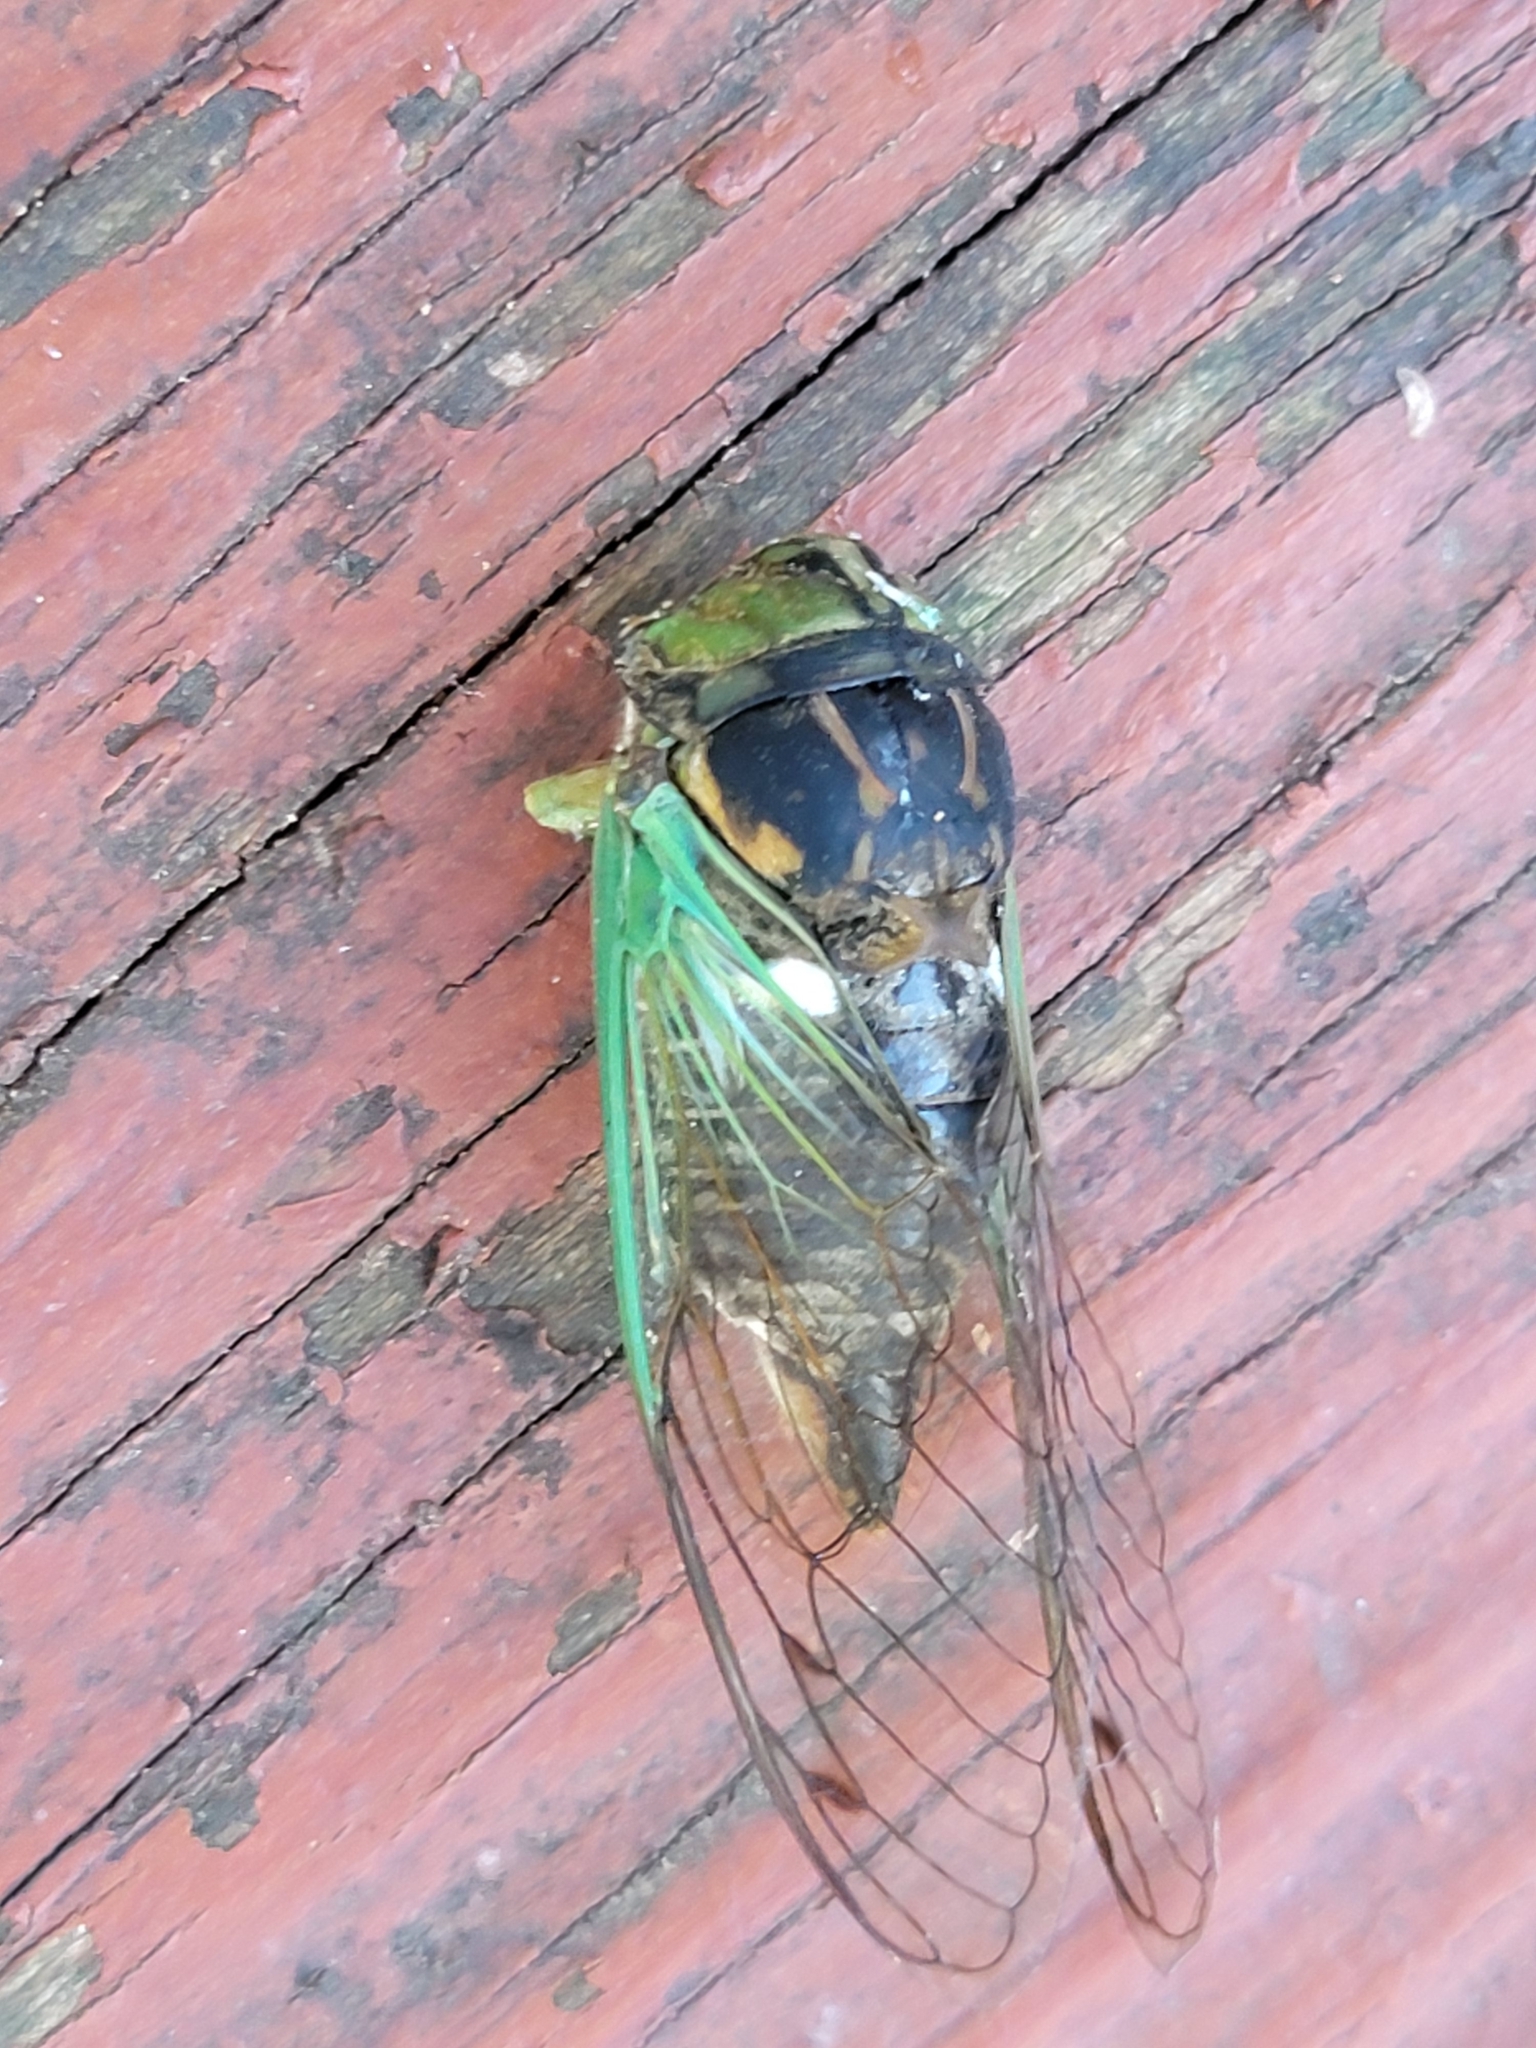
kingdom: Animalia
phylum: Arthropoda
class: Insecta
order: Hemiptera
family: Cicadidae
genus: Neotibicen
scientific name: Neotibicen tibicen
